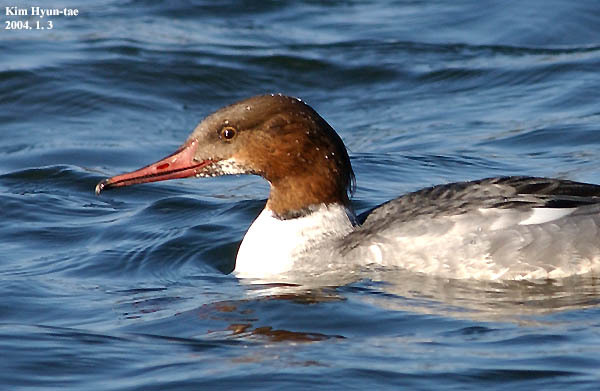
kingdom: Animalia
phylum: Chordata
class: Aves
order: Anseriformes
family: Anatidae
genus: Mergus
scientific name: Mergus merganser
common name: Common merganser
